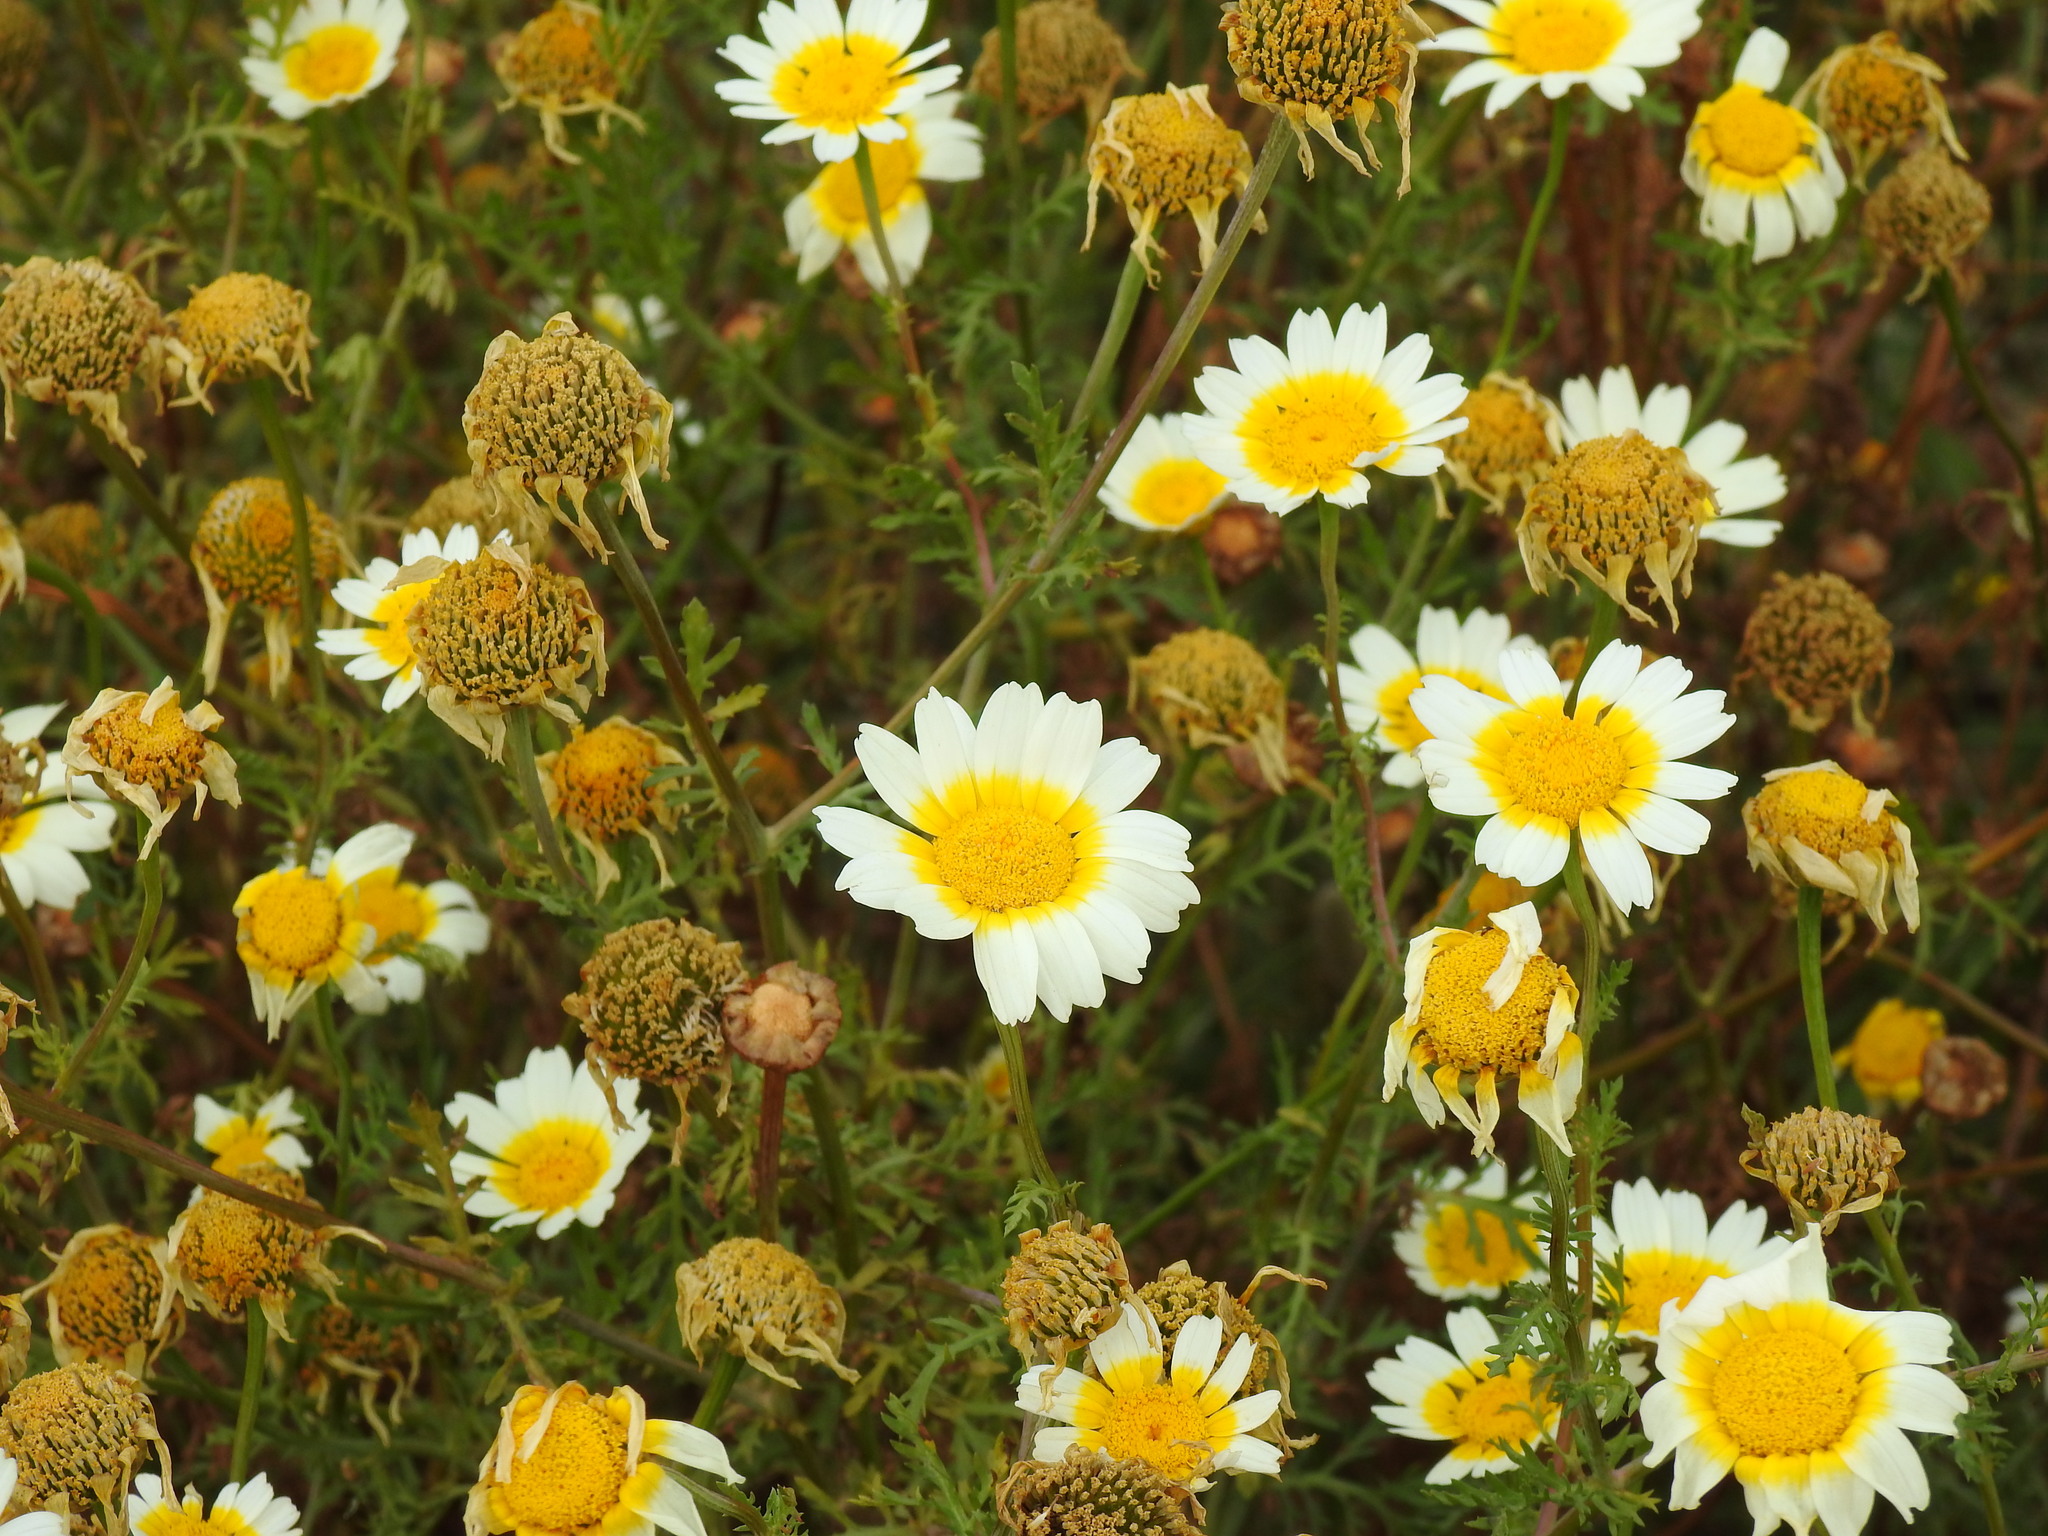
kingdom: Plantae
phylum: Tracheophyta
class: Magnoliopsida
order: Asterales
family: Asteraceae
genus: Glebionis
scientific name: Glebionis coronaria
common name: Crowndaisy
